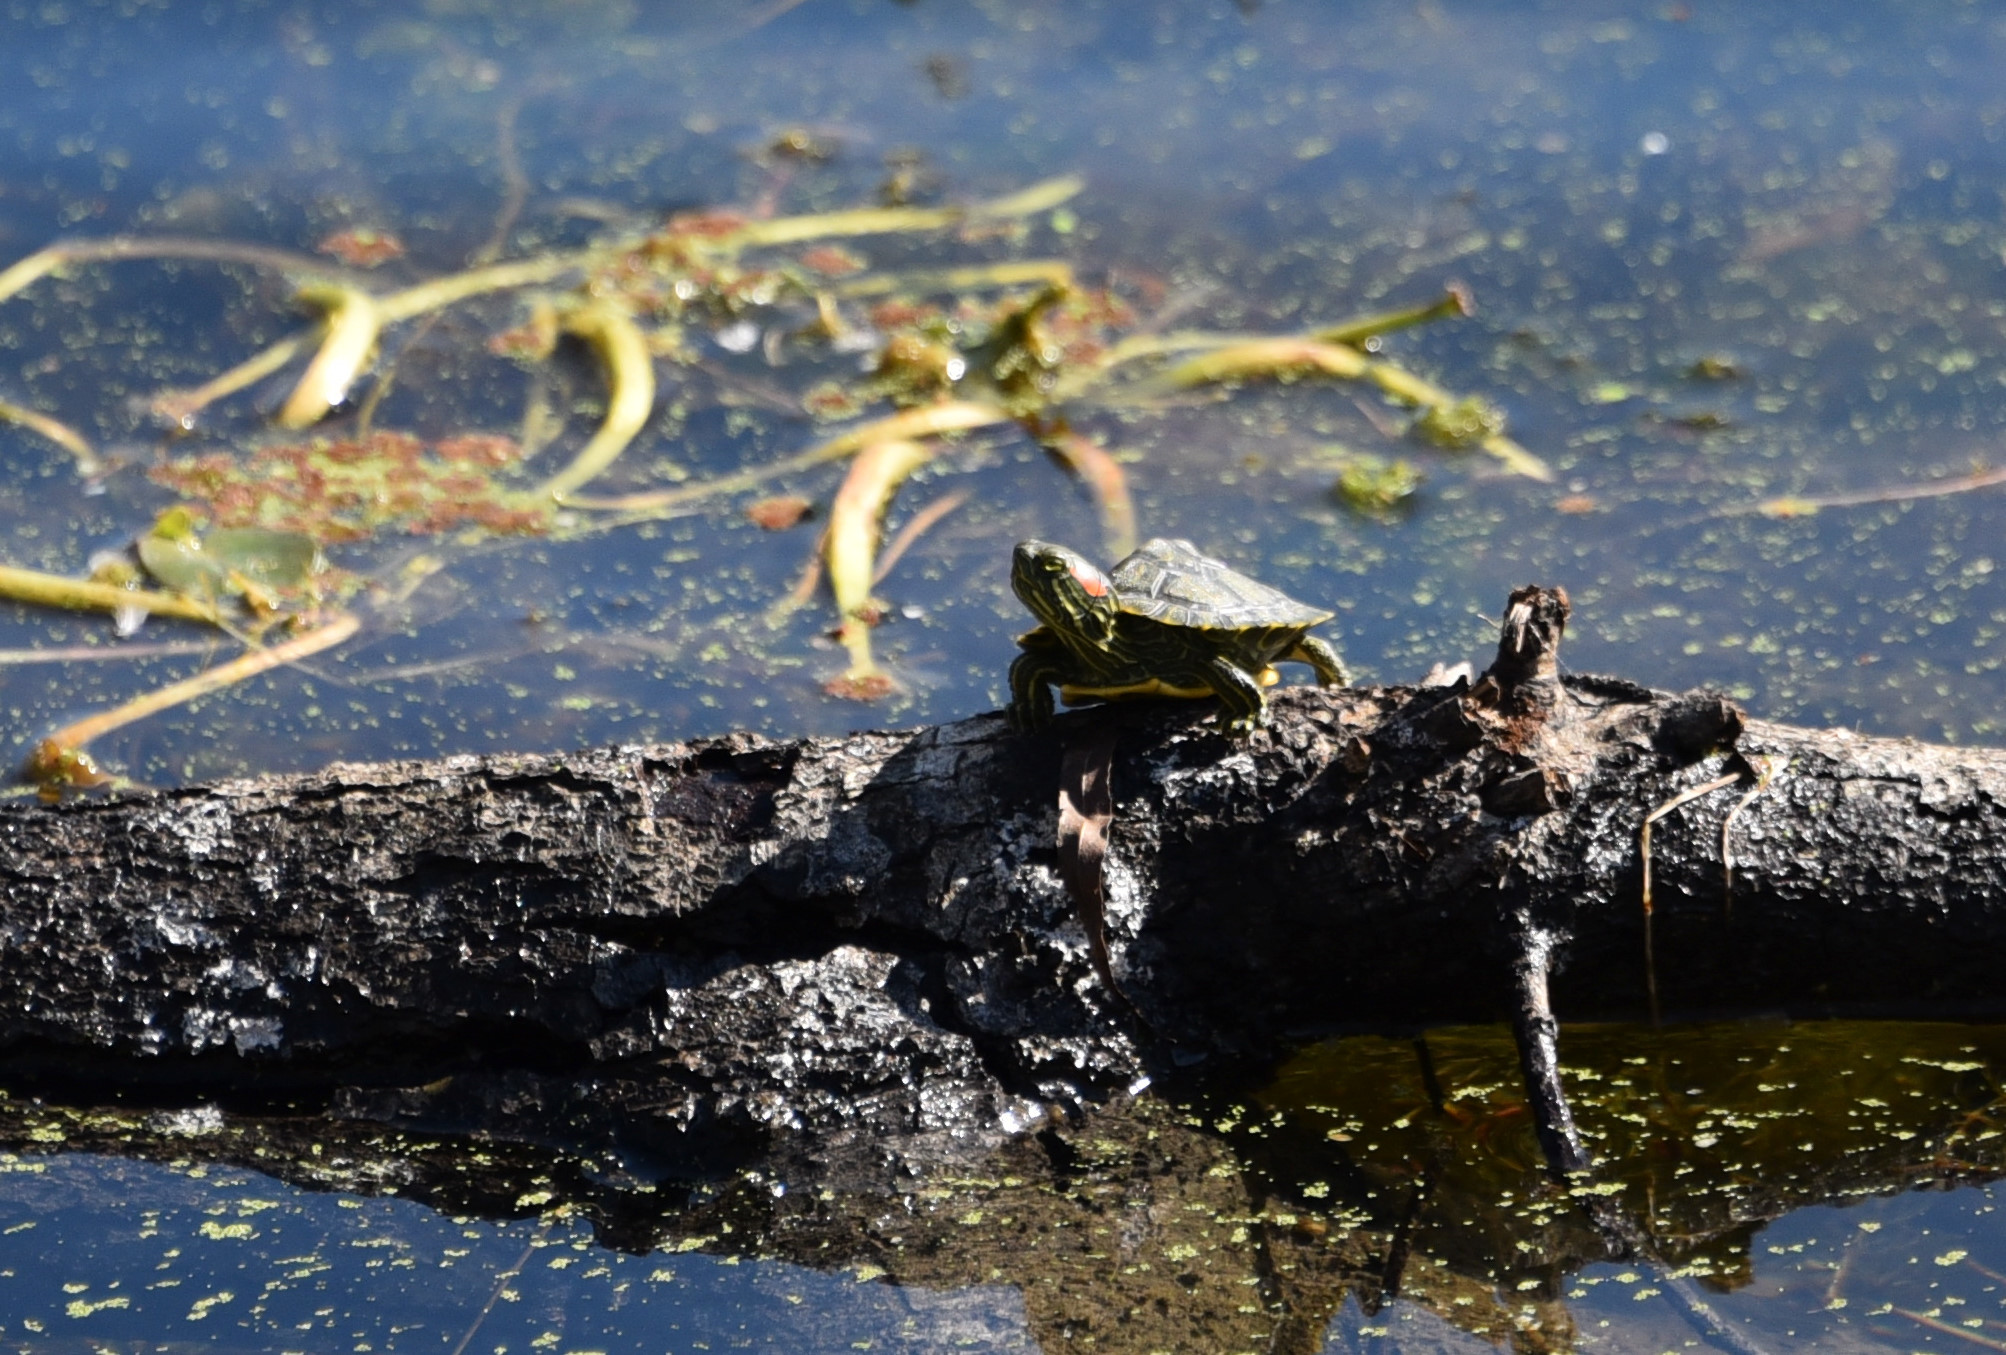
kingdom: Animalia
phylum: Chordata
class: Testudines
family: Emydidae
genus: Trachemys
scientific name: Trachemys scripta
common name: Slider
